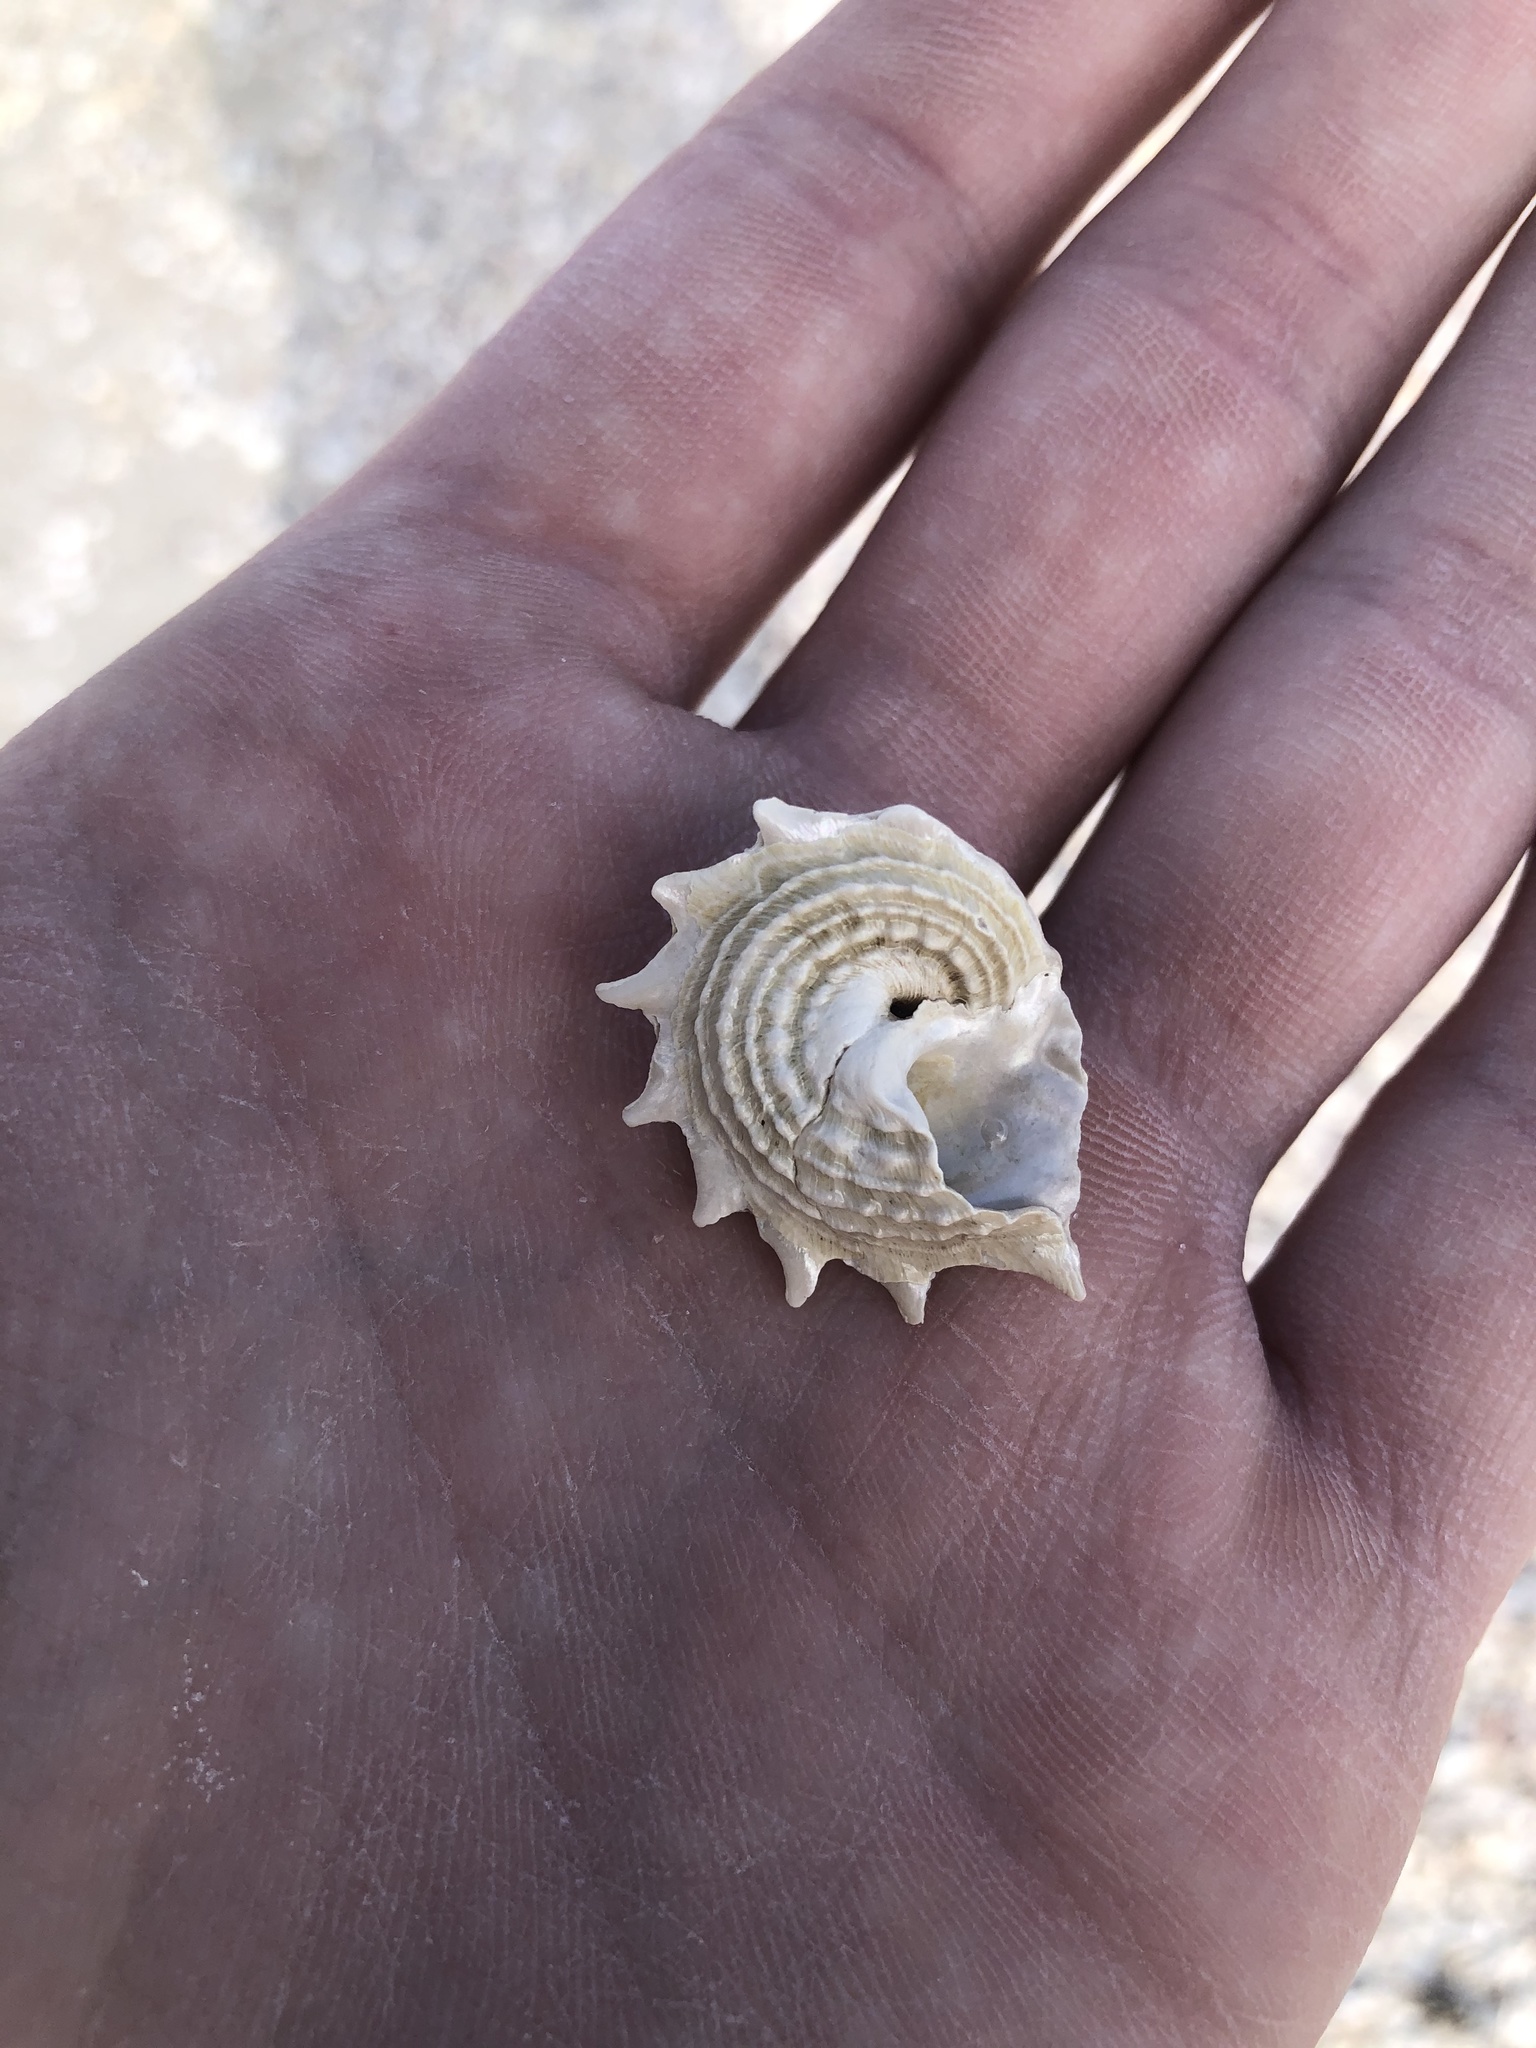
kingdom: Animalia
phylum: Mollusca
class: Gastropoda
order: Trochida
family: Turbinidae
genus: Lithopoma
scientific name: Lithopoma phoebium
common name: Long-spined starsnail
